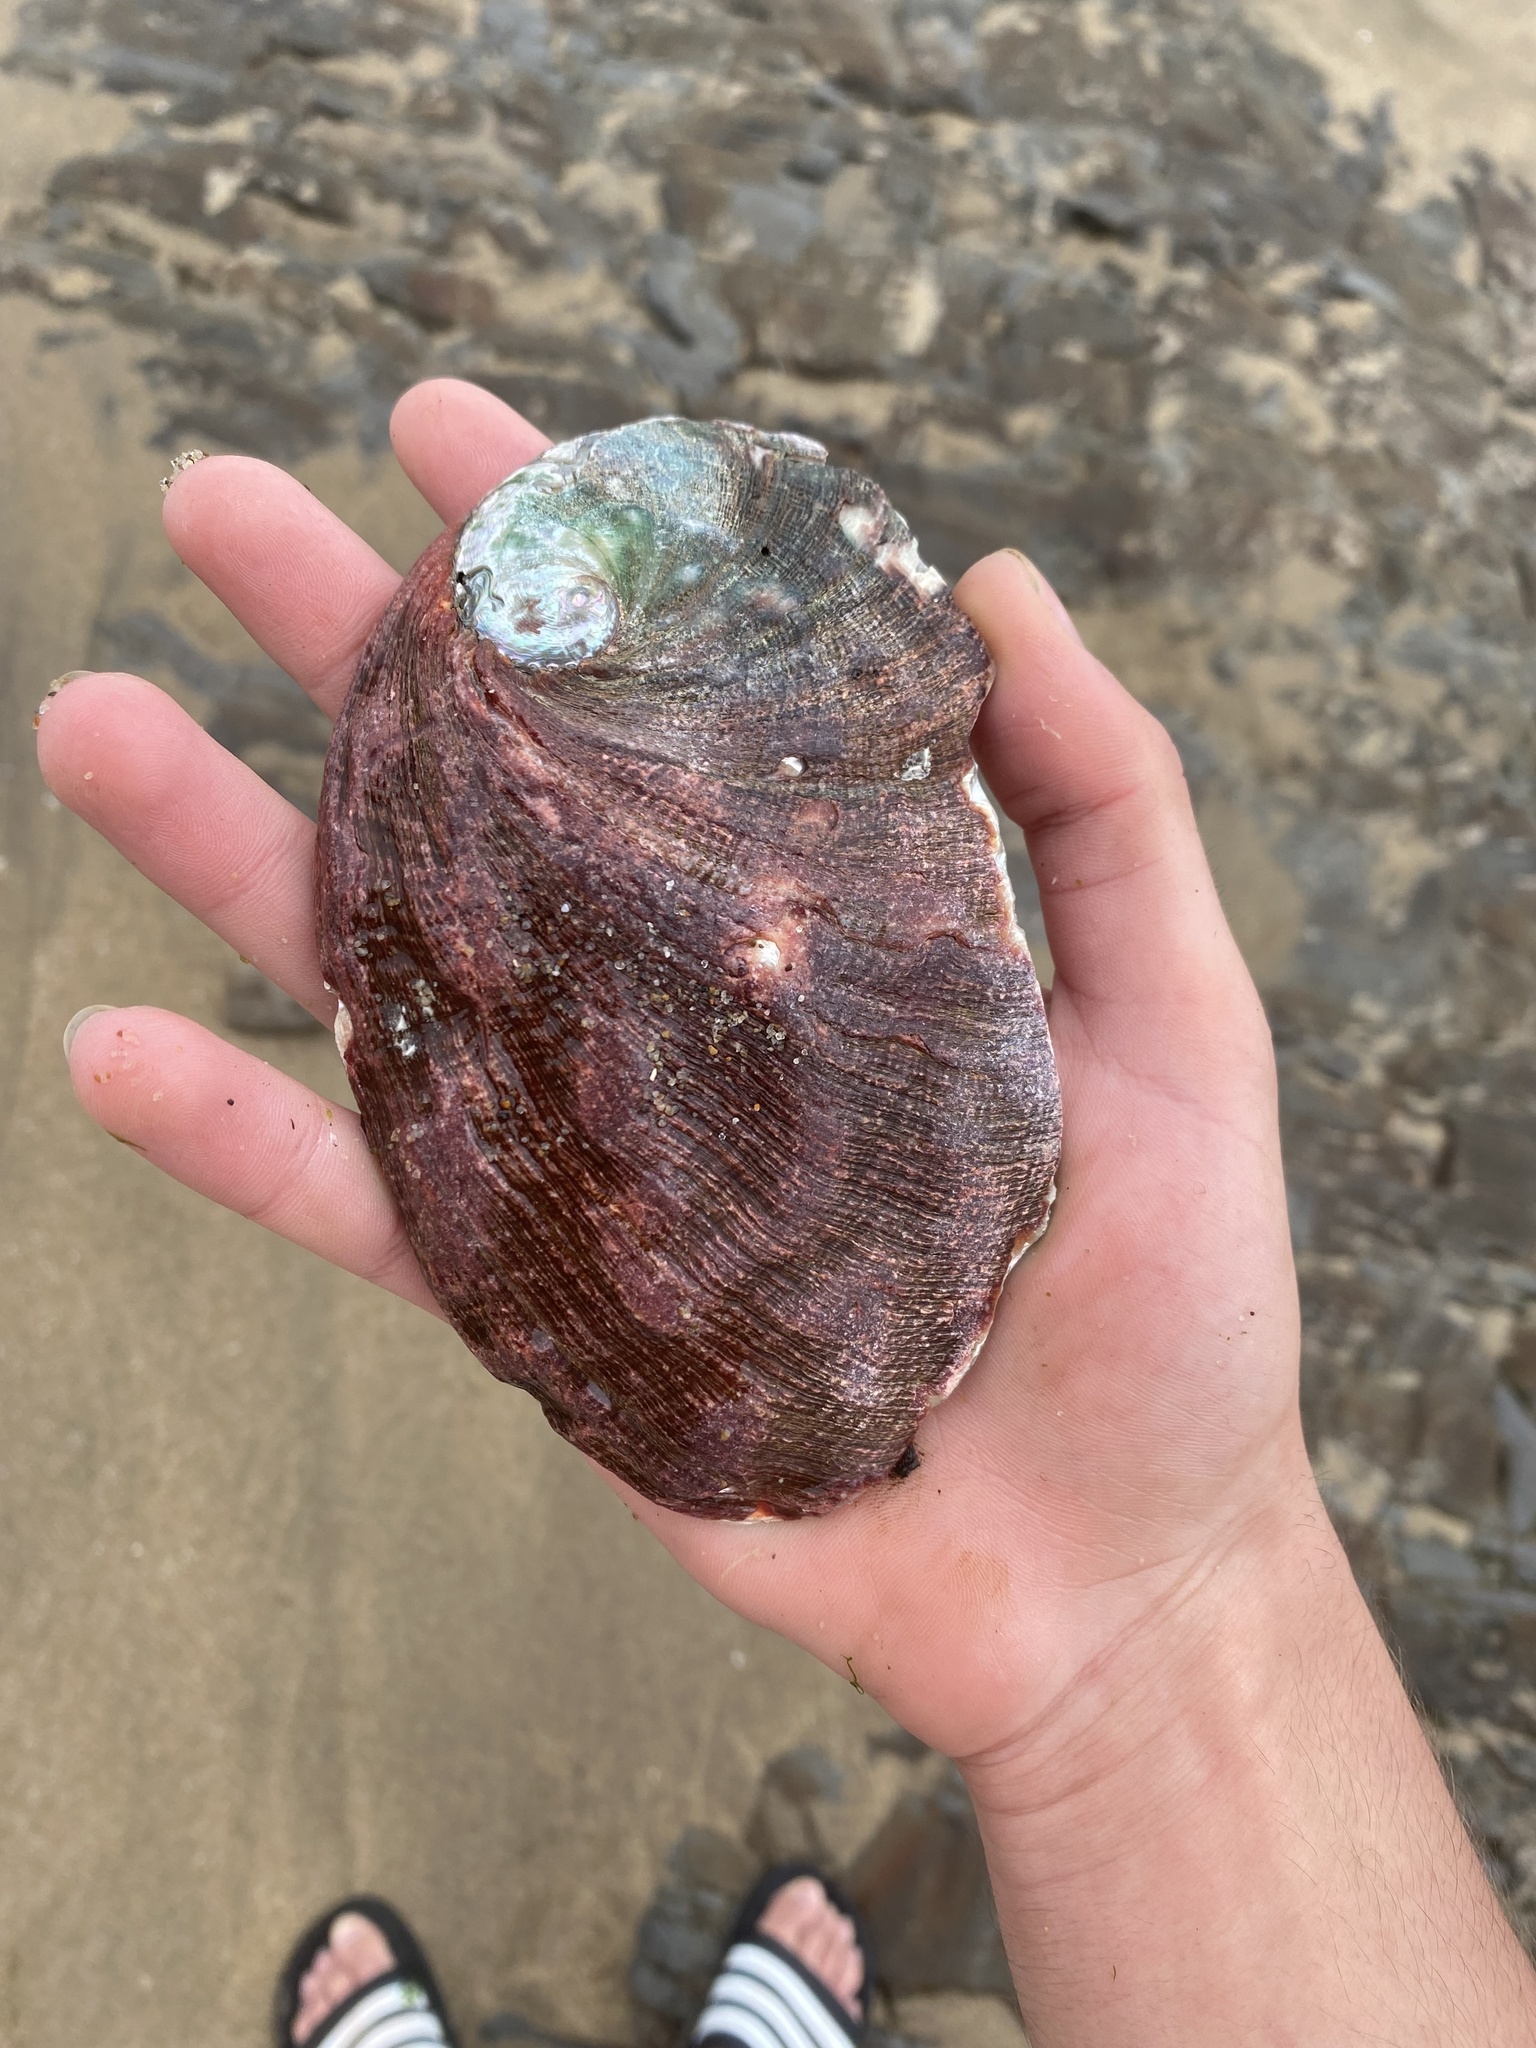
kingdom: Animalia
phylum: Mollusca
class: Gastropoda
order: Lepetellida
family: Haliotidae
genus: Haliotis
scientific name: Haliotis rufescens
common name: Red abalone
